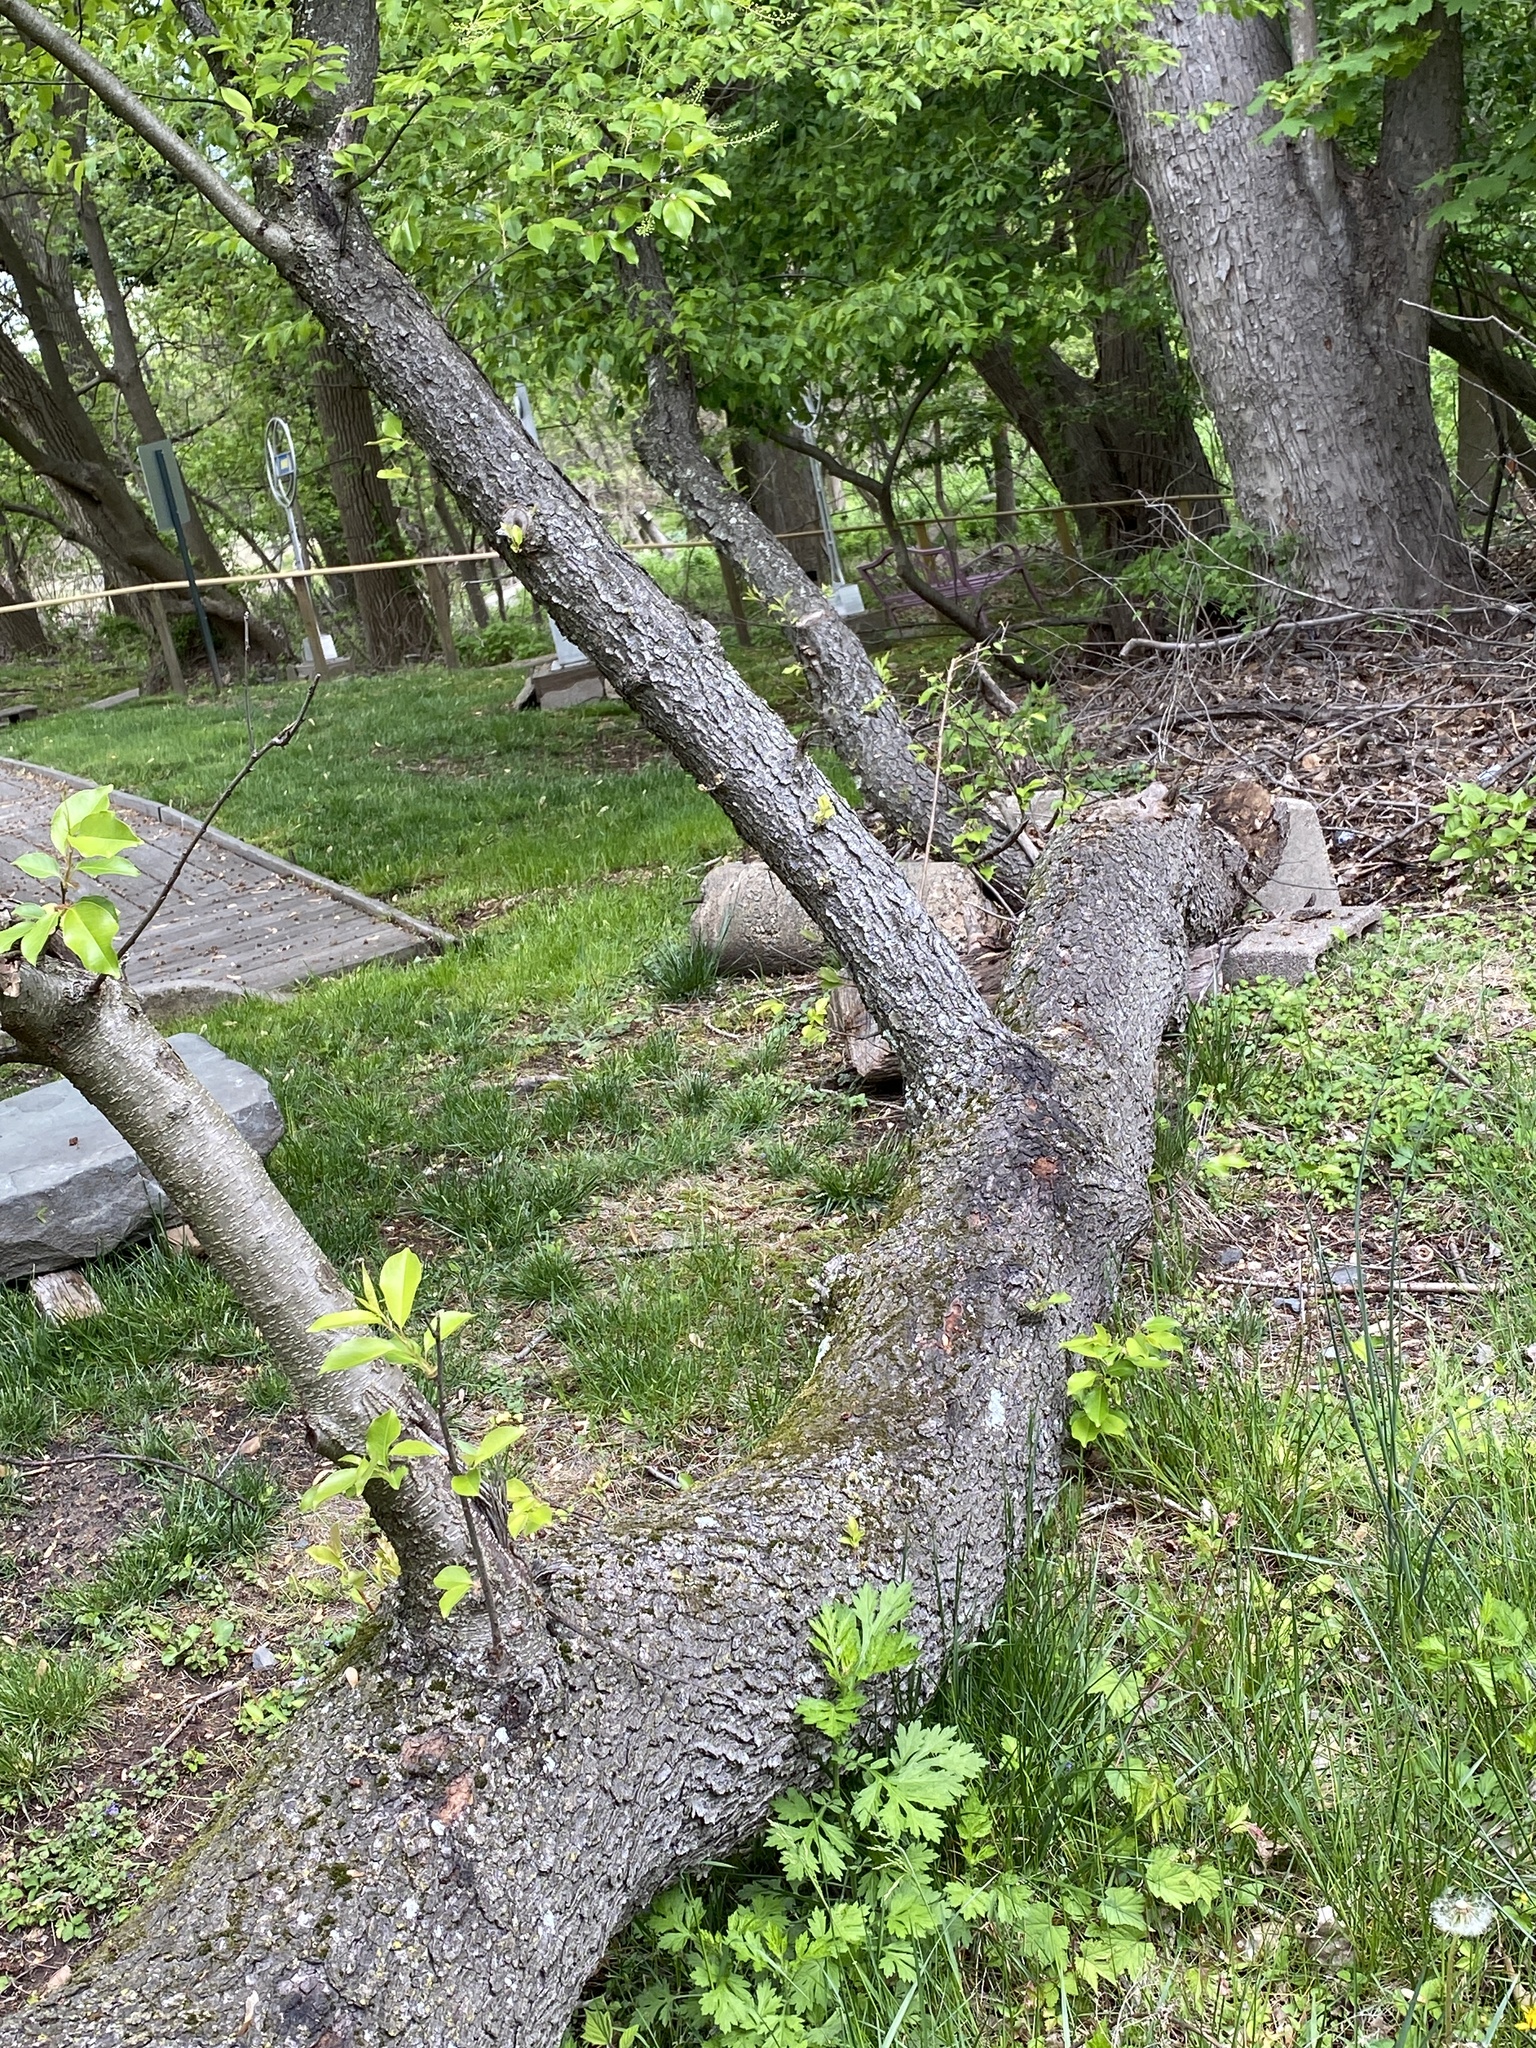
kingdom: Plantae
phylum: Tracheophyta
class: Magnoliopsida
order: Rosales
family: Rosaceae
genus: Prunus
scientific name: Prunus serotina
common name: Black cherry
